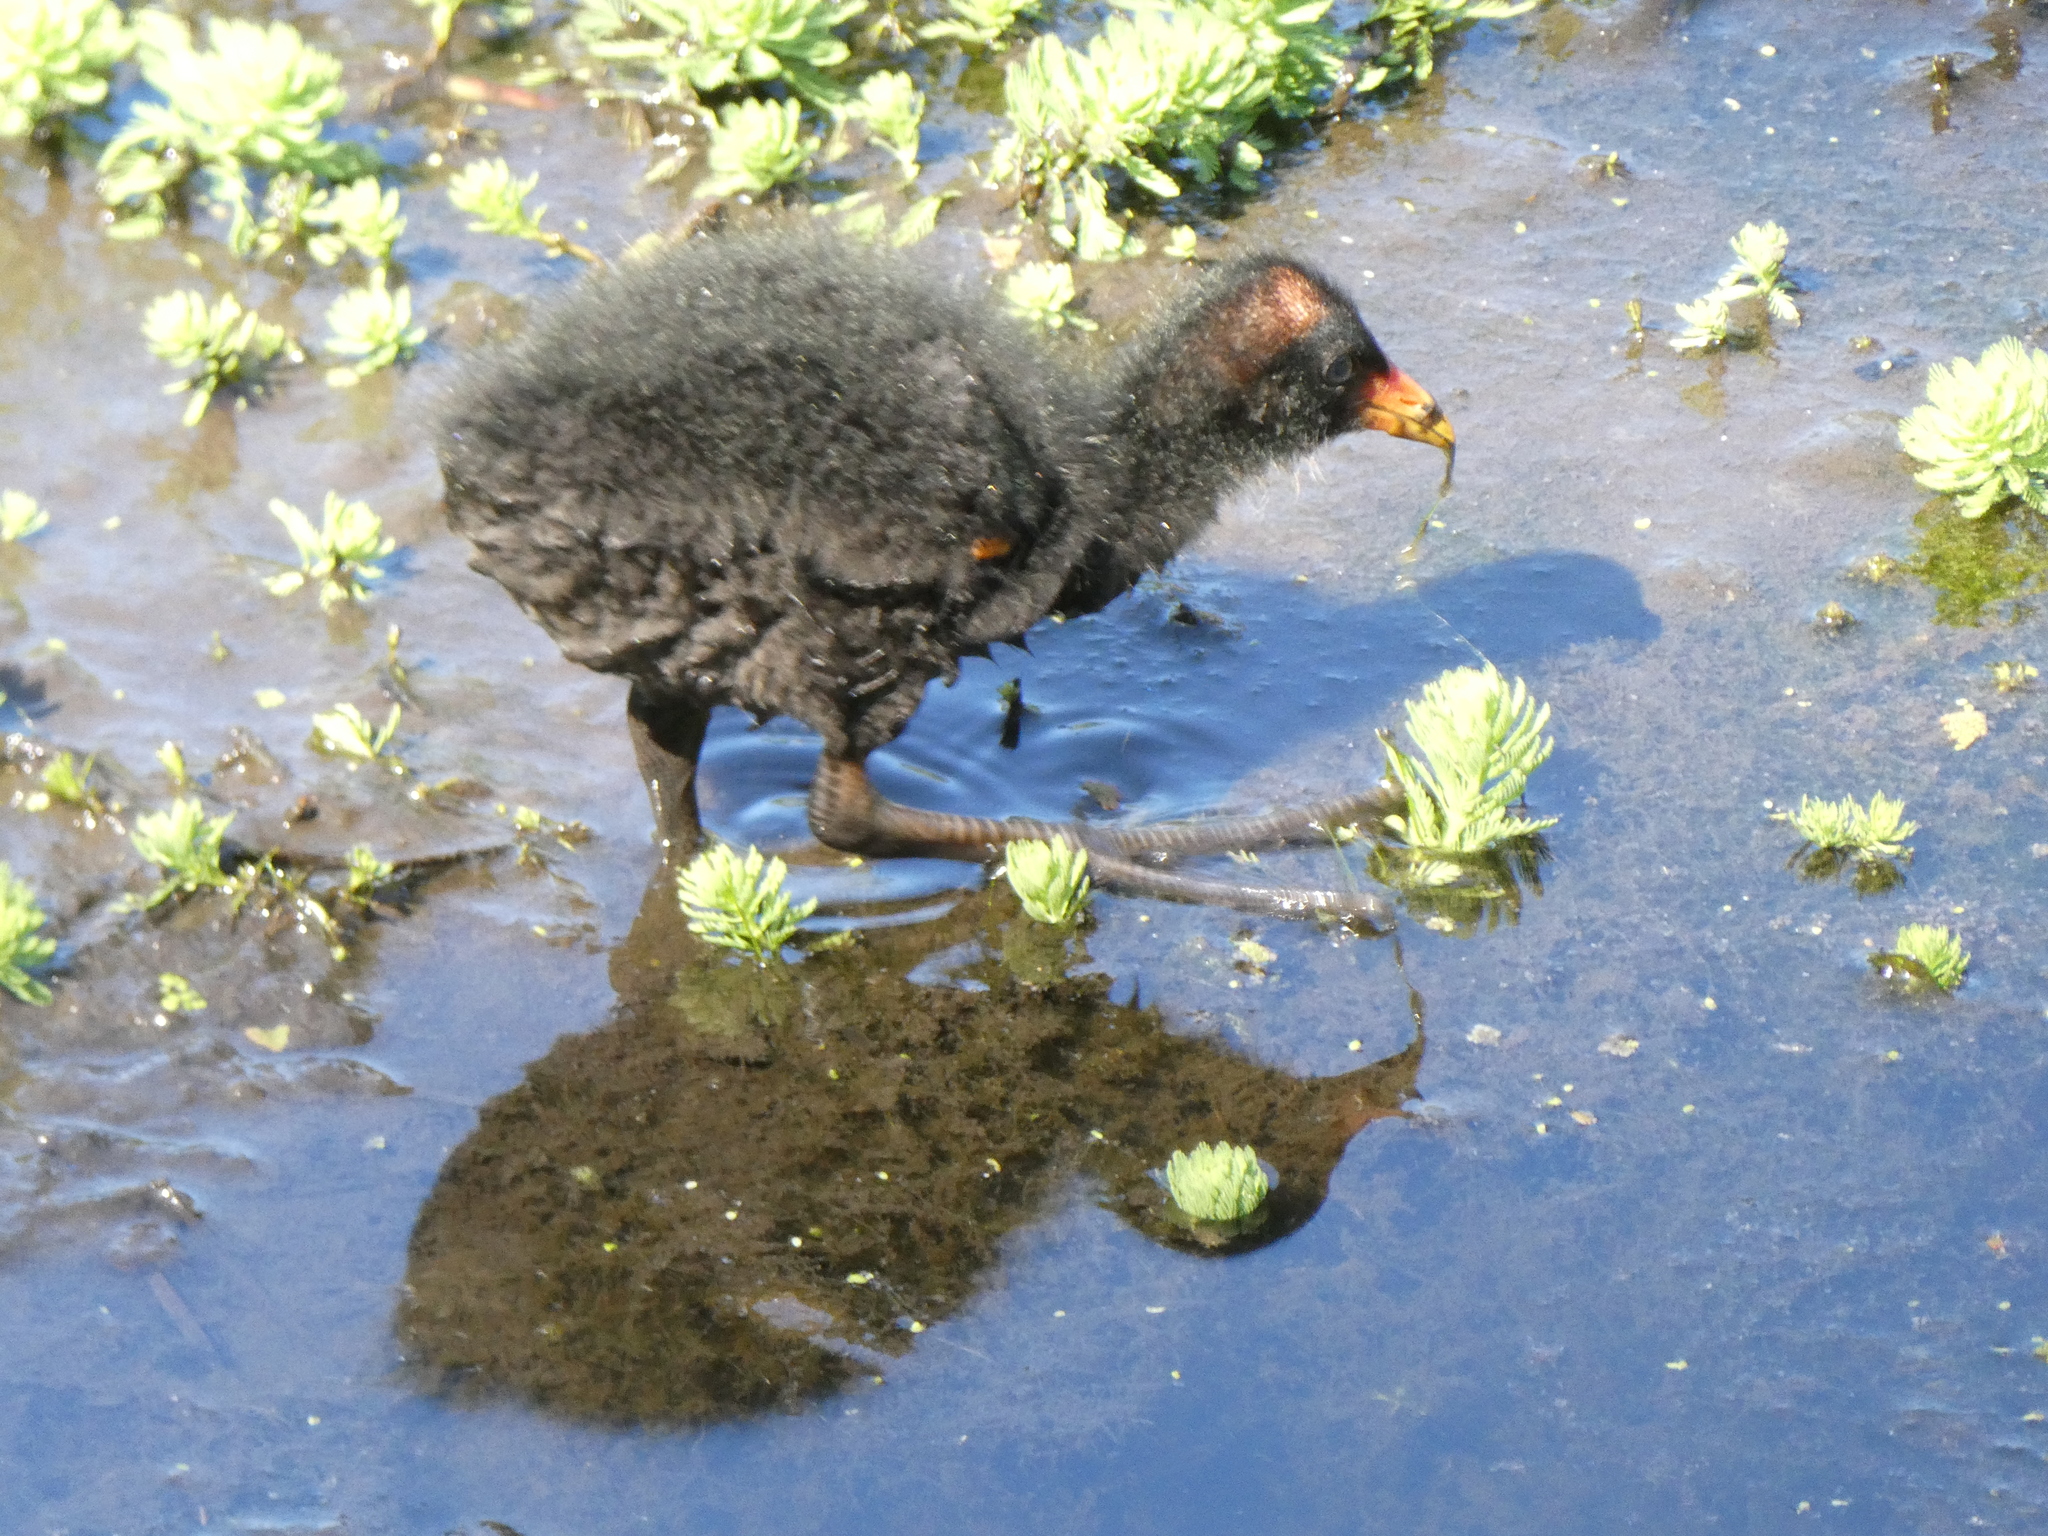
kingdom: Animalia
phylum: Chordata
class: Aves
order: Gruiformes
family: Rallidae
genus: Gallinula
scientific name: Gallinula tenebrosa
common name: Dusky moorhen
